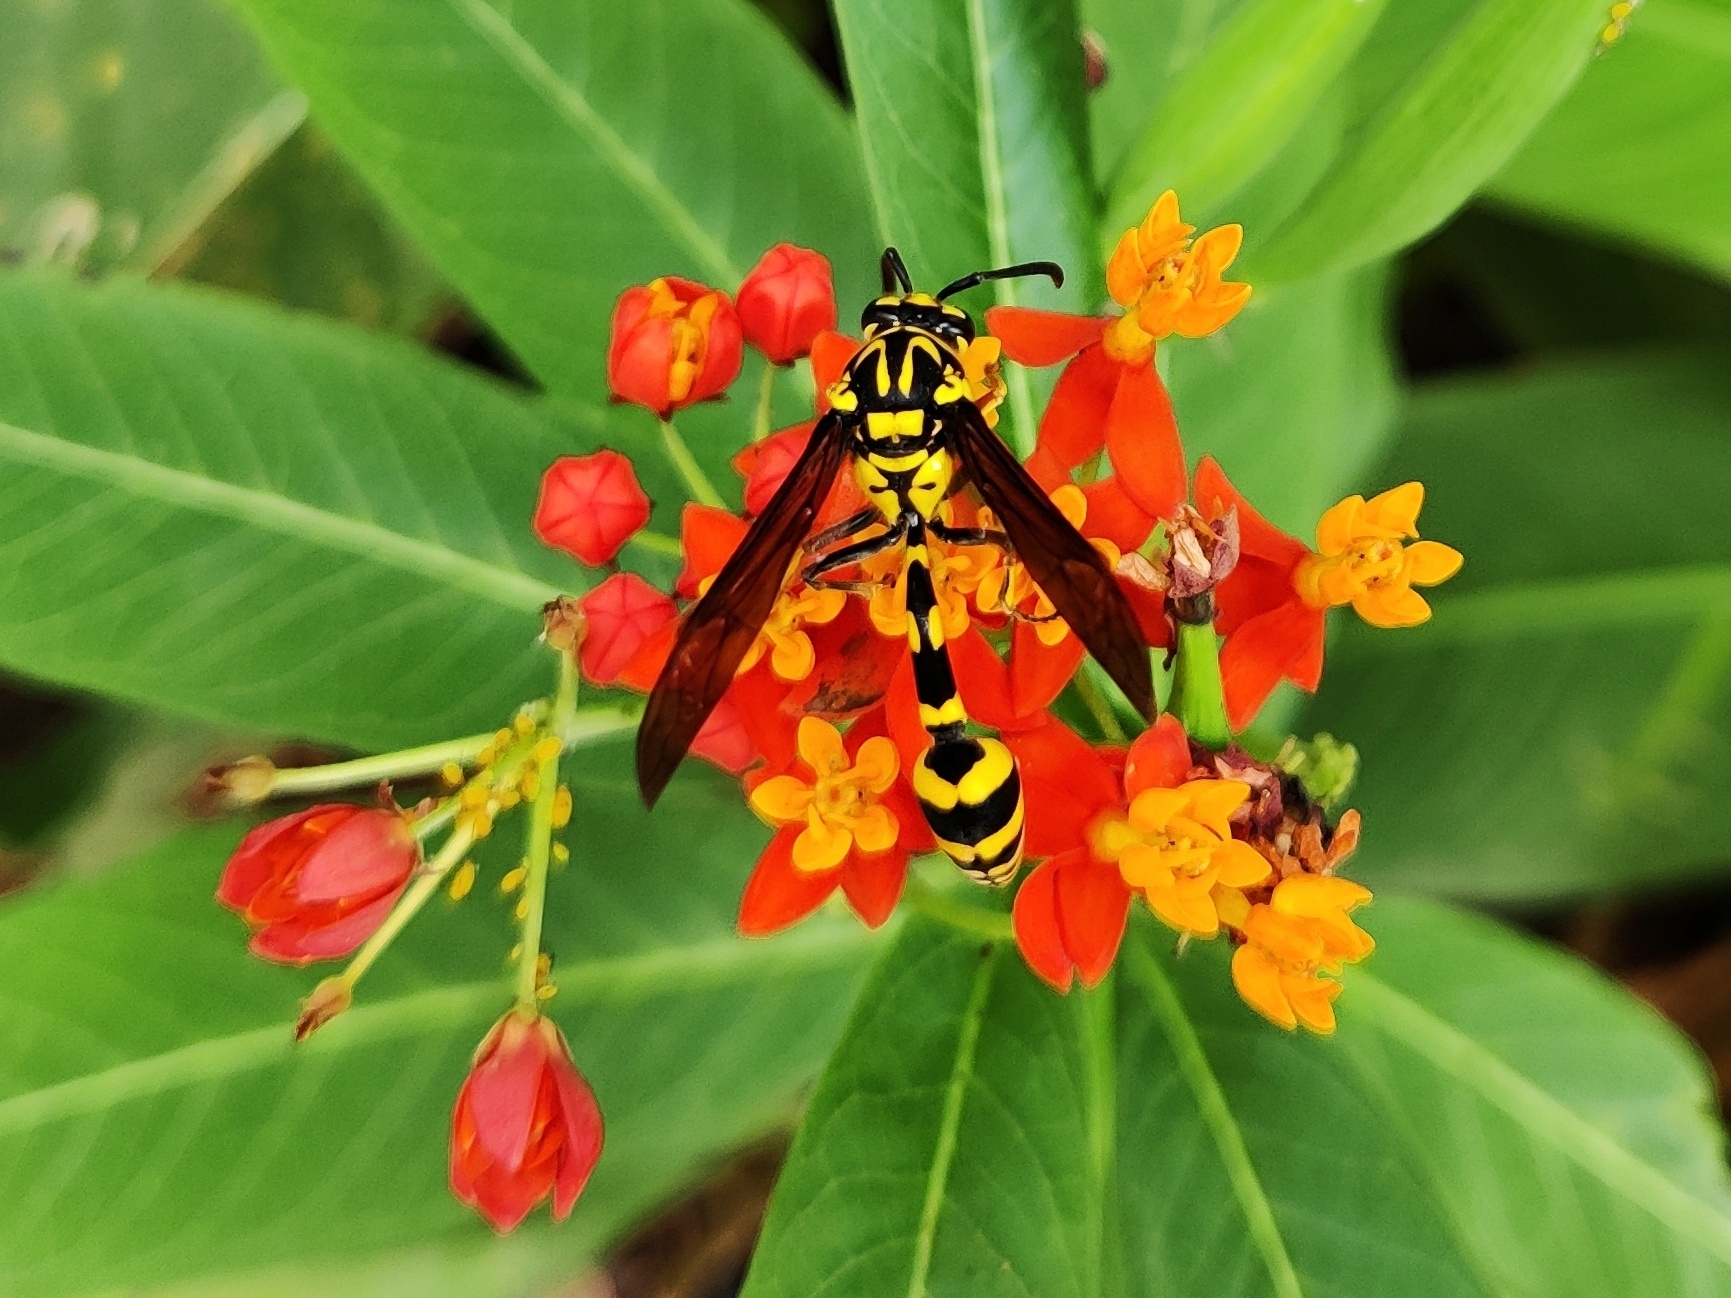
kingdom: Animalia
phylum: Arthropoda
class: Insecta
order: Hymenoptera
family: Eumenidae
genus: Phimenes
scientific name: Phimenes flavopictus
